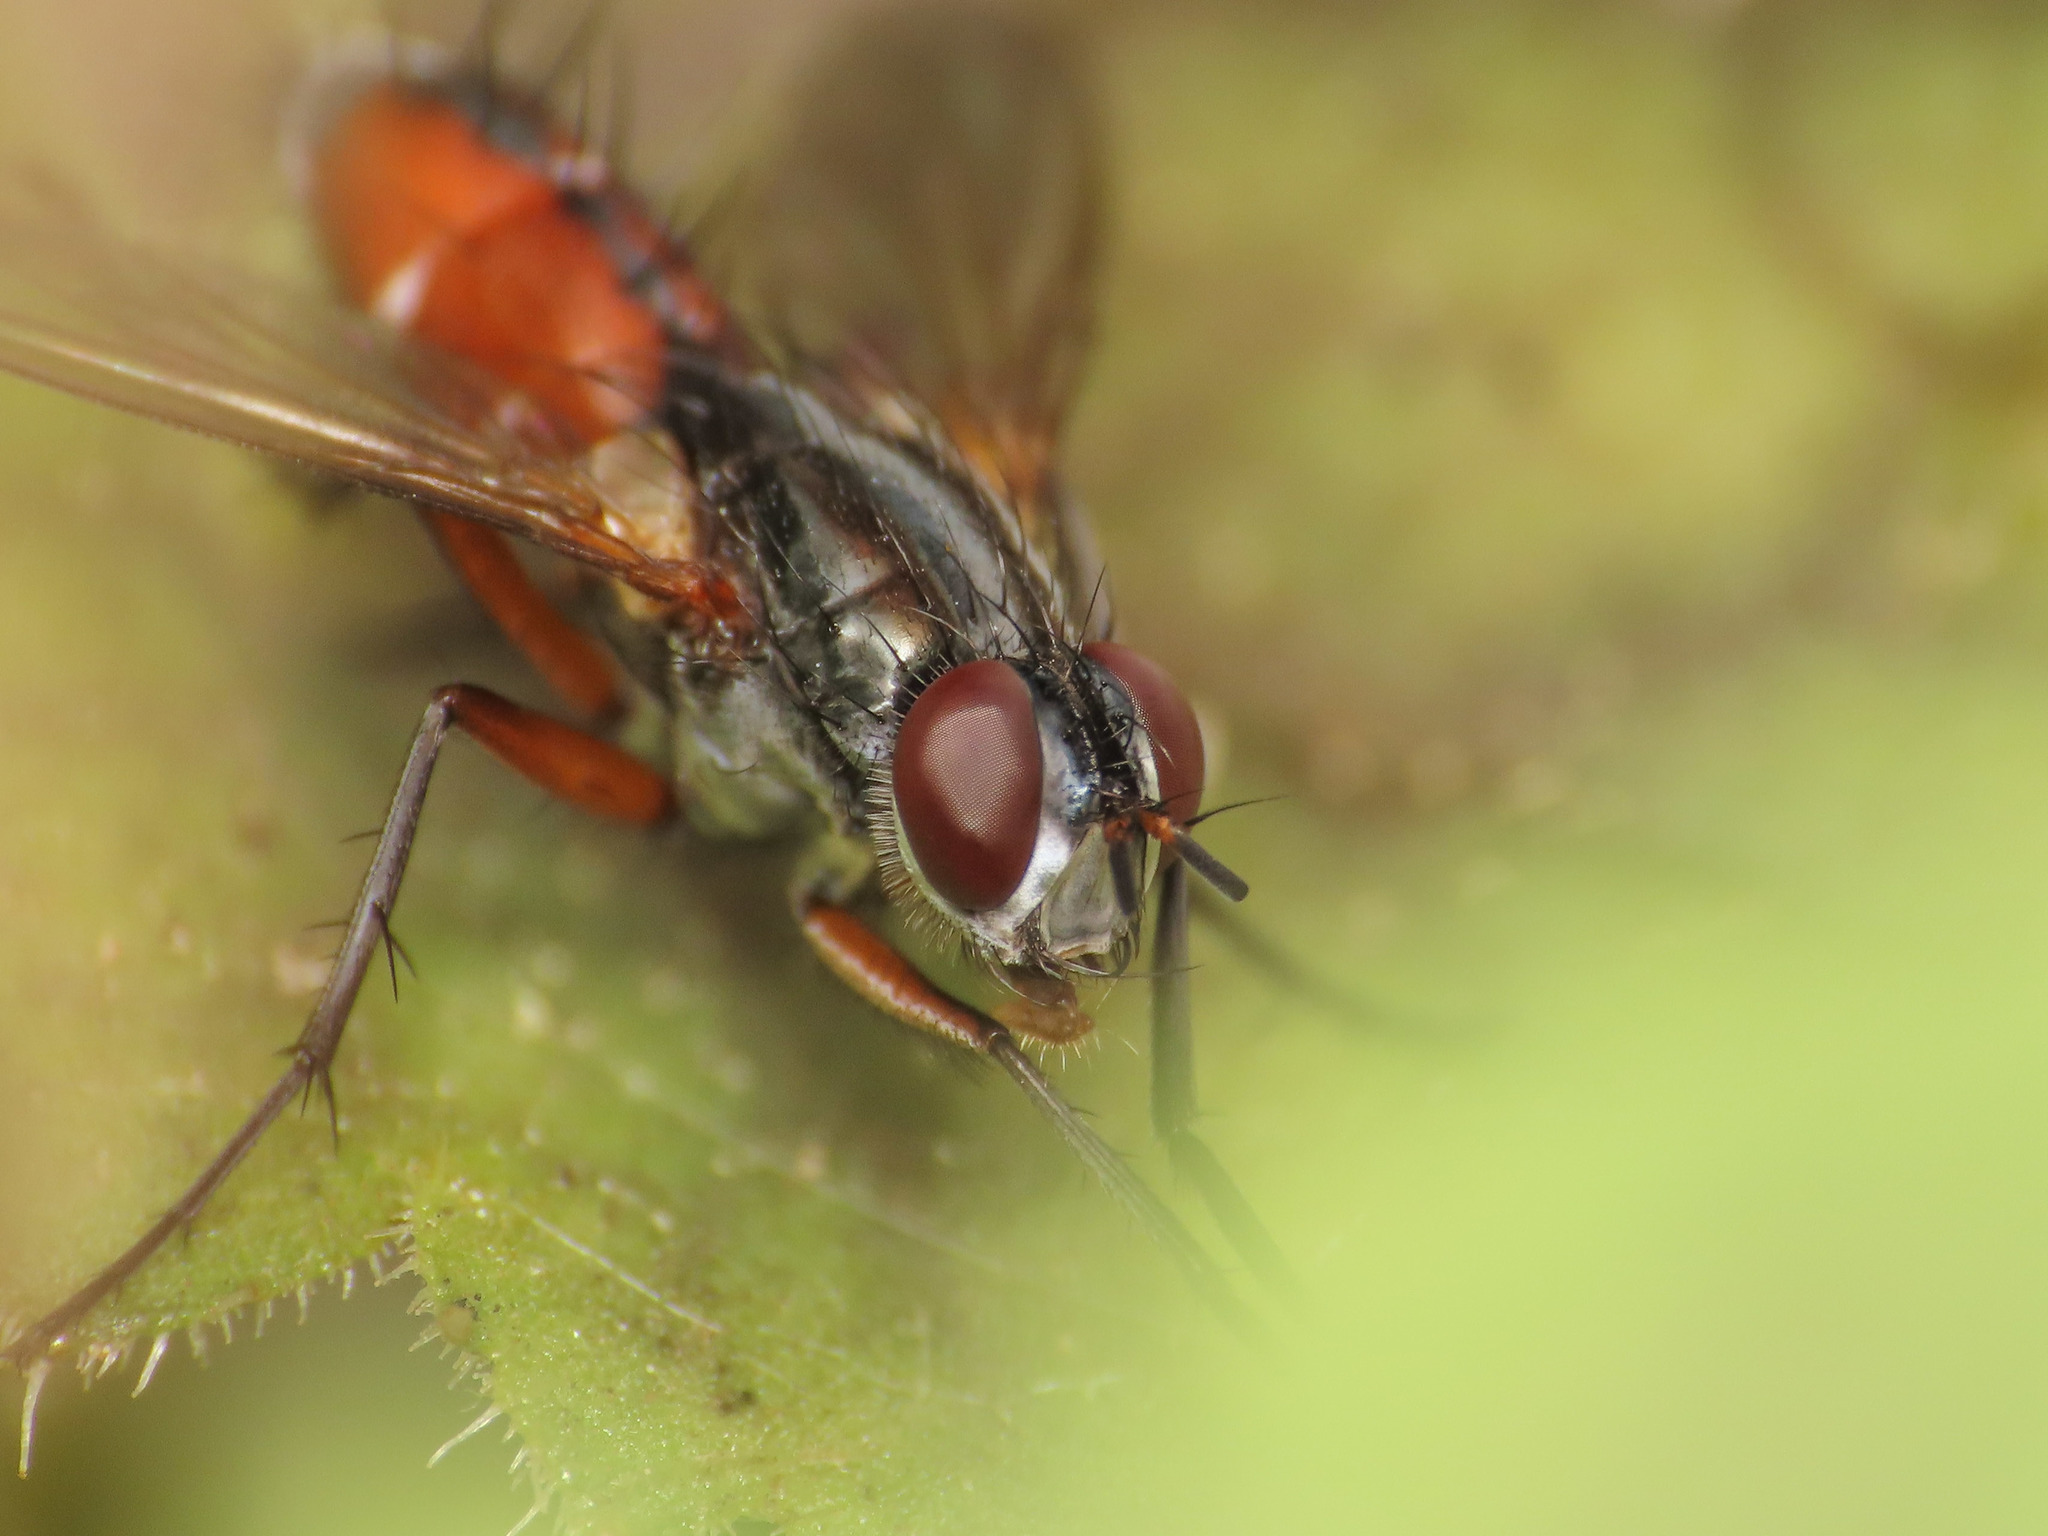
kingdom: Animalia
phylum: Arthropoda
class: Insecta
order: Diptera
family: Tachinidae
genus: Mintho
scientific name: Mintho rufiventris
